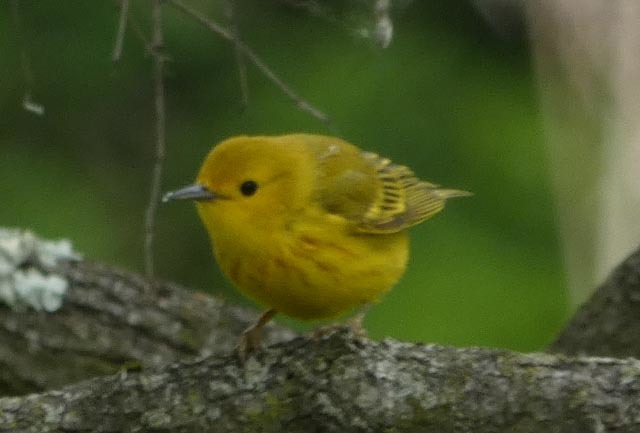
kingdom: Animalia
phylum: Chordata
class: Aves
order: Passeriformes
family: Parulidae
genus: Setophaga
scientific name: Setophaga petechia
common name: Yellow warbler
